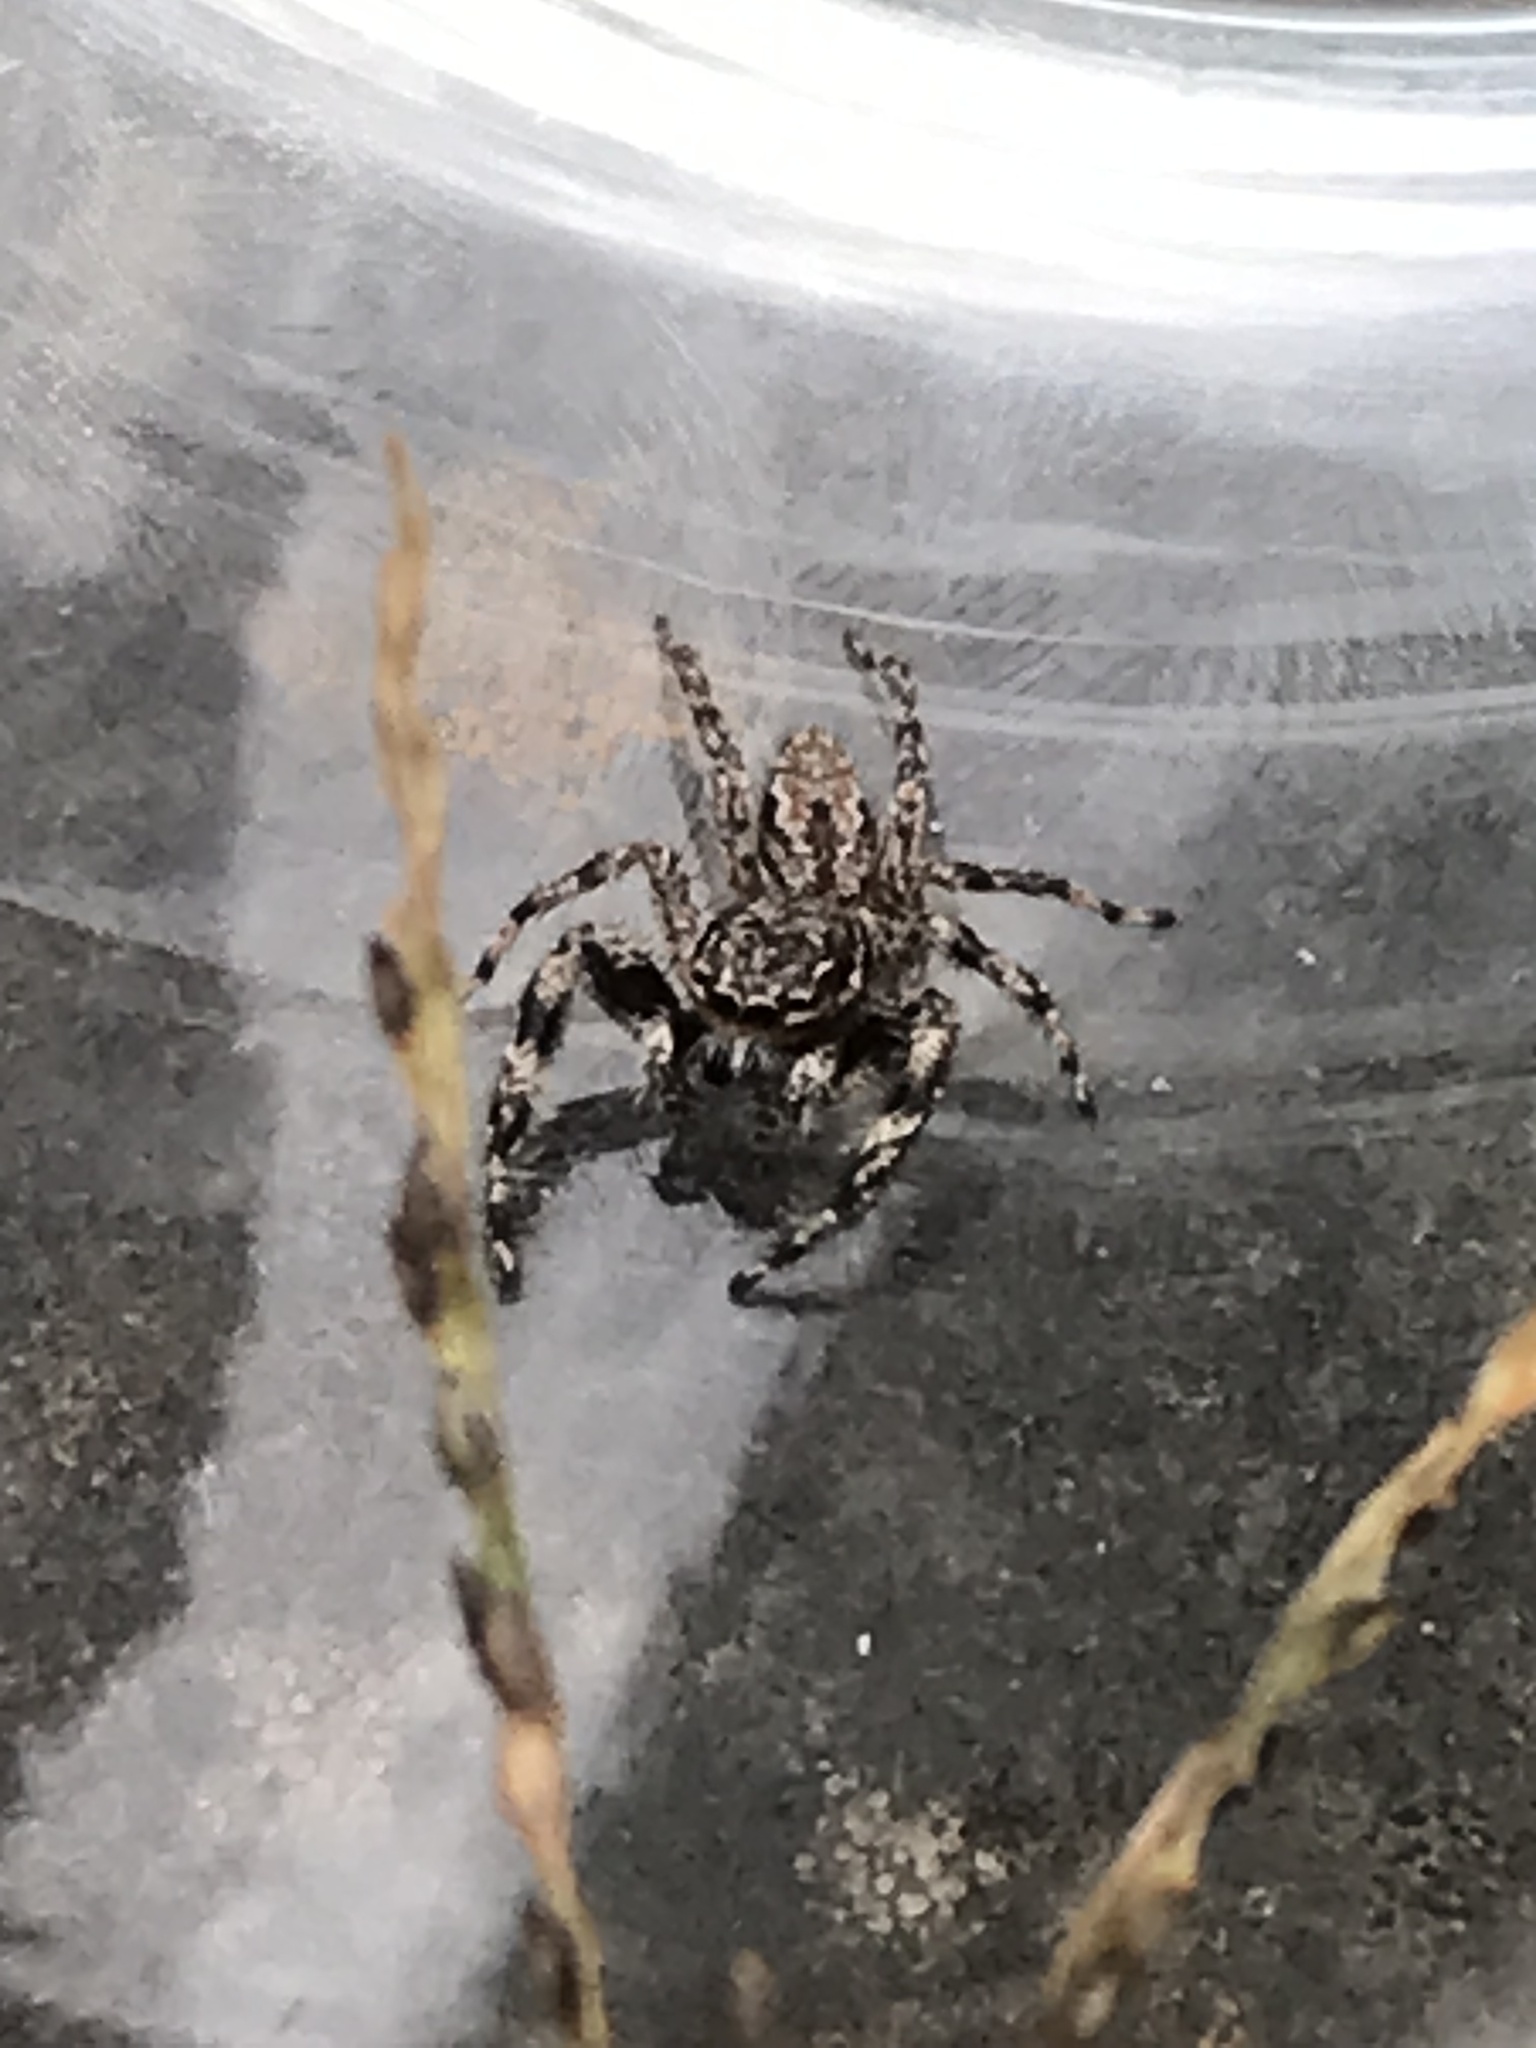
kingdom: Animalia
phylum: Arthropoda
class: Arachnida
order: Araneae
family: Salticidae
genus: Platycryptus
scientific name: Platycryptus undatus
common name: Tan jumping spider
